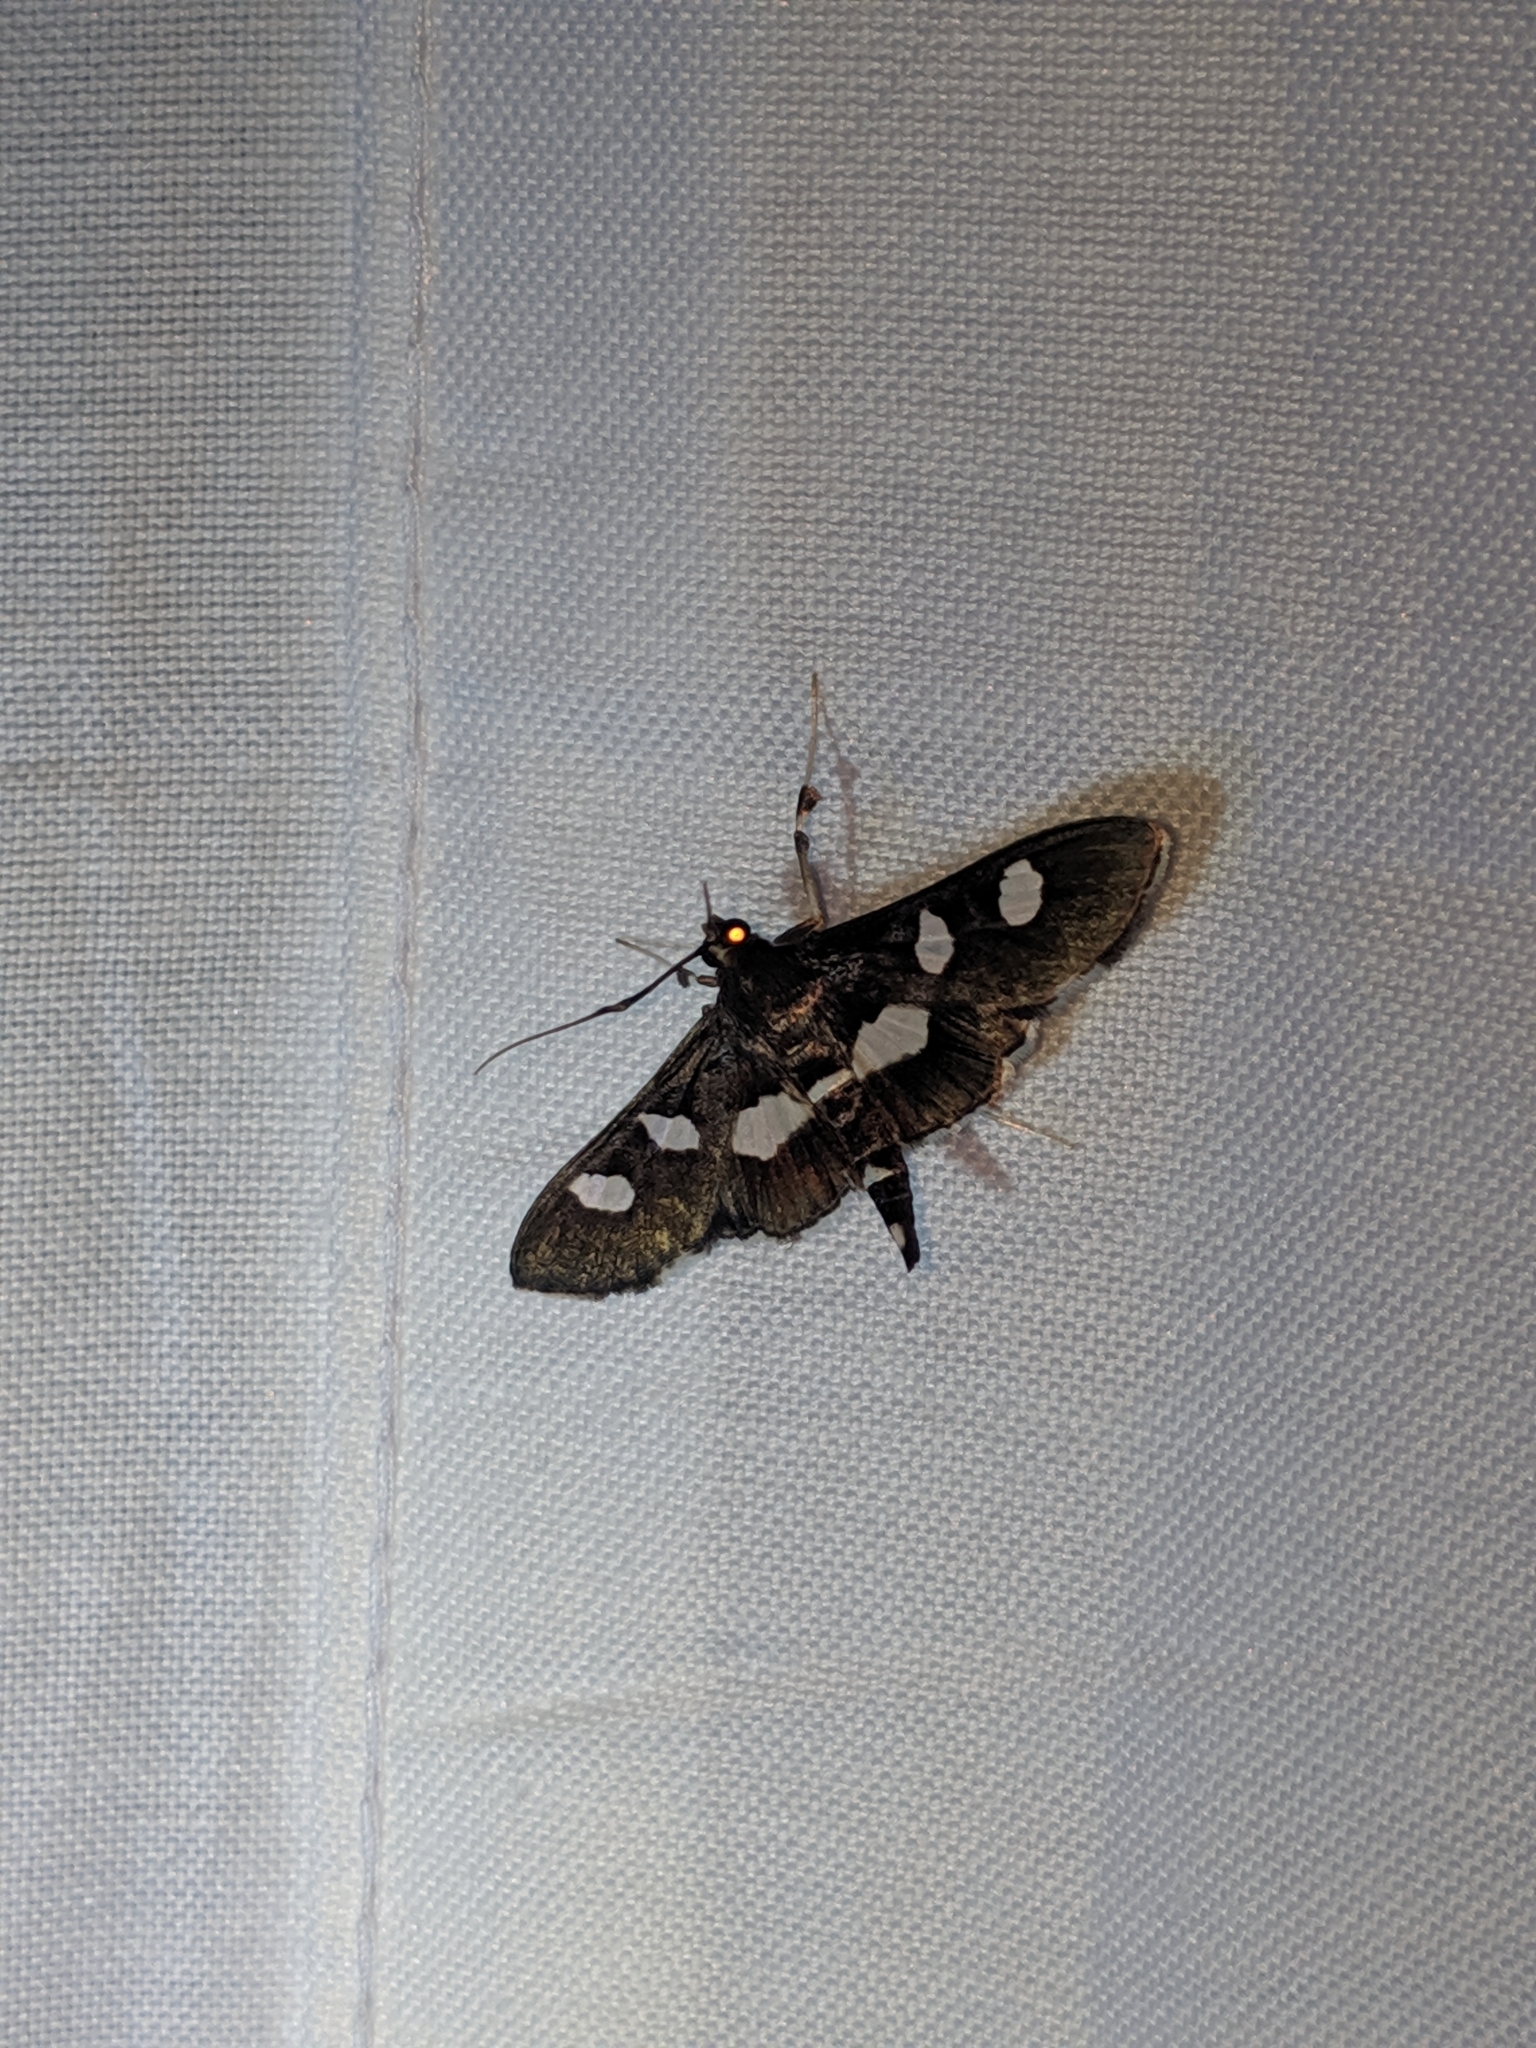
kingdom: Animalia
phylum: Arthropoda
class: Insecta
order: Lepidoptera
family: Crambidae
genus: Desmia
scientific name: Desmia
